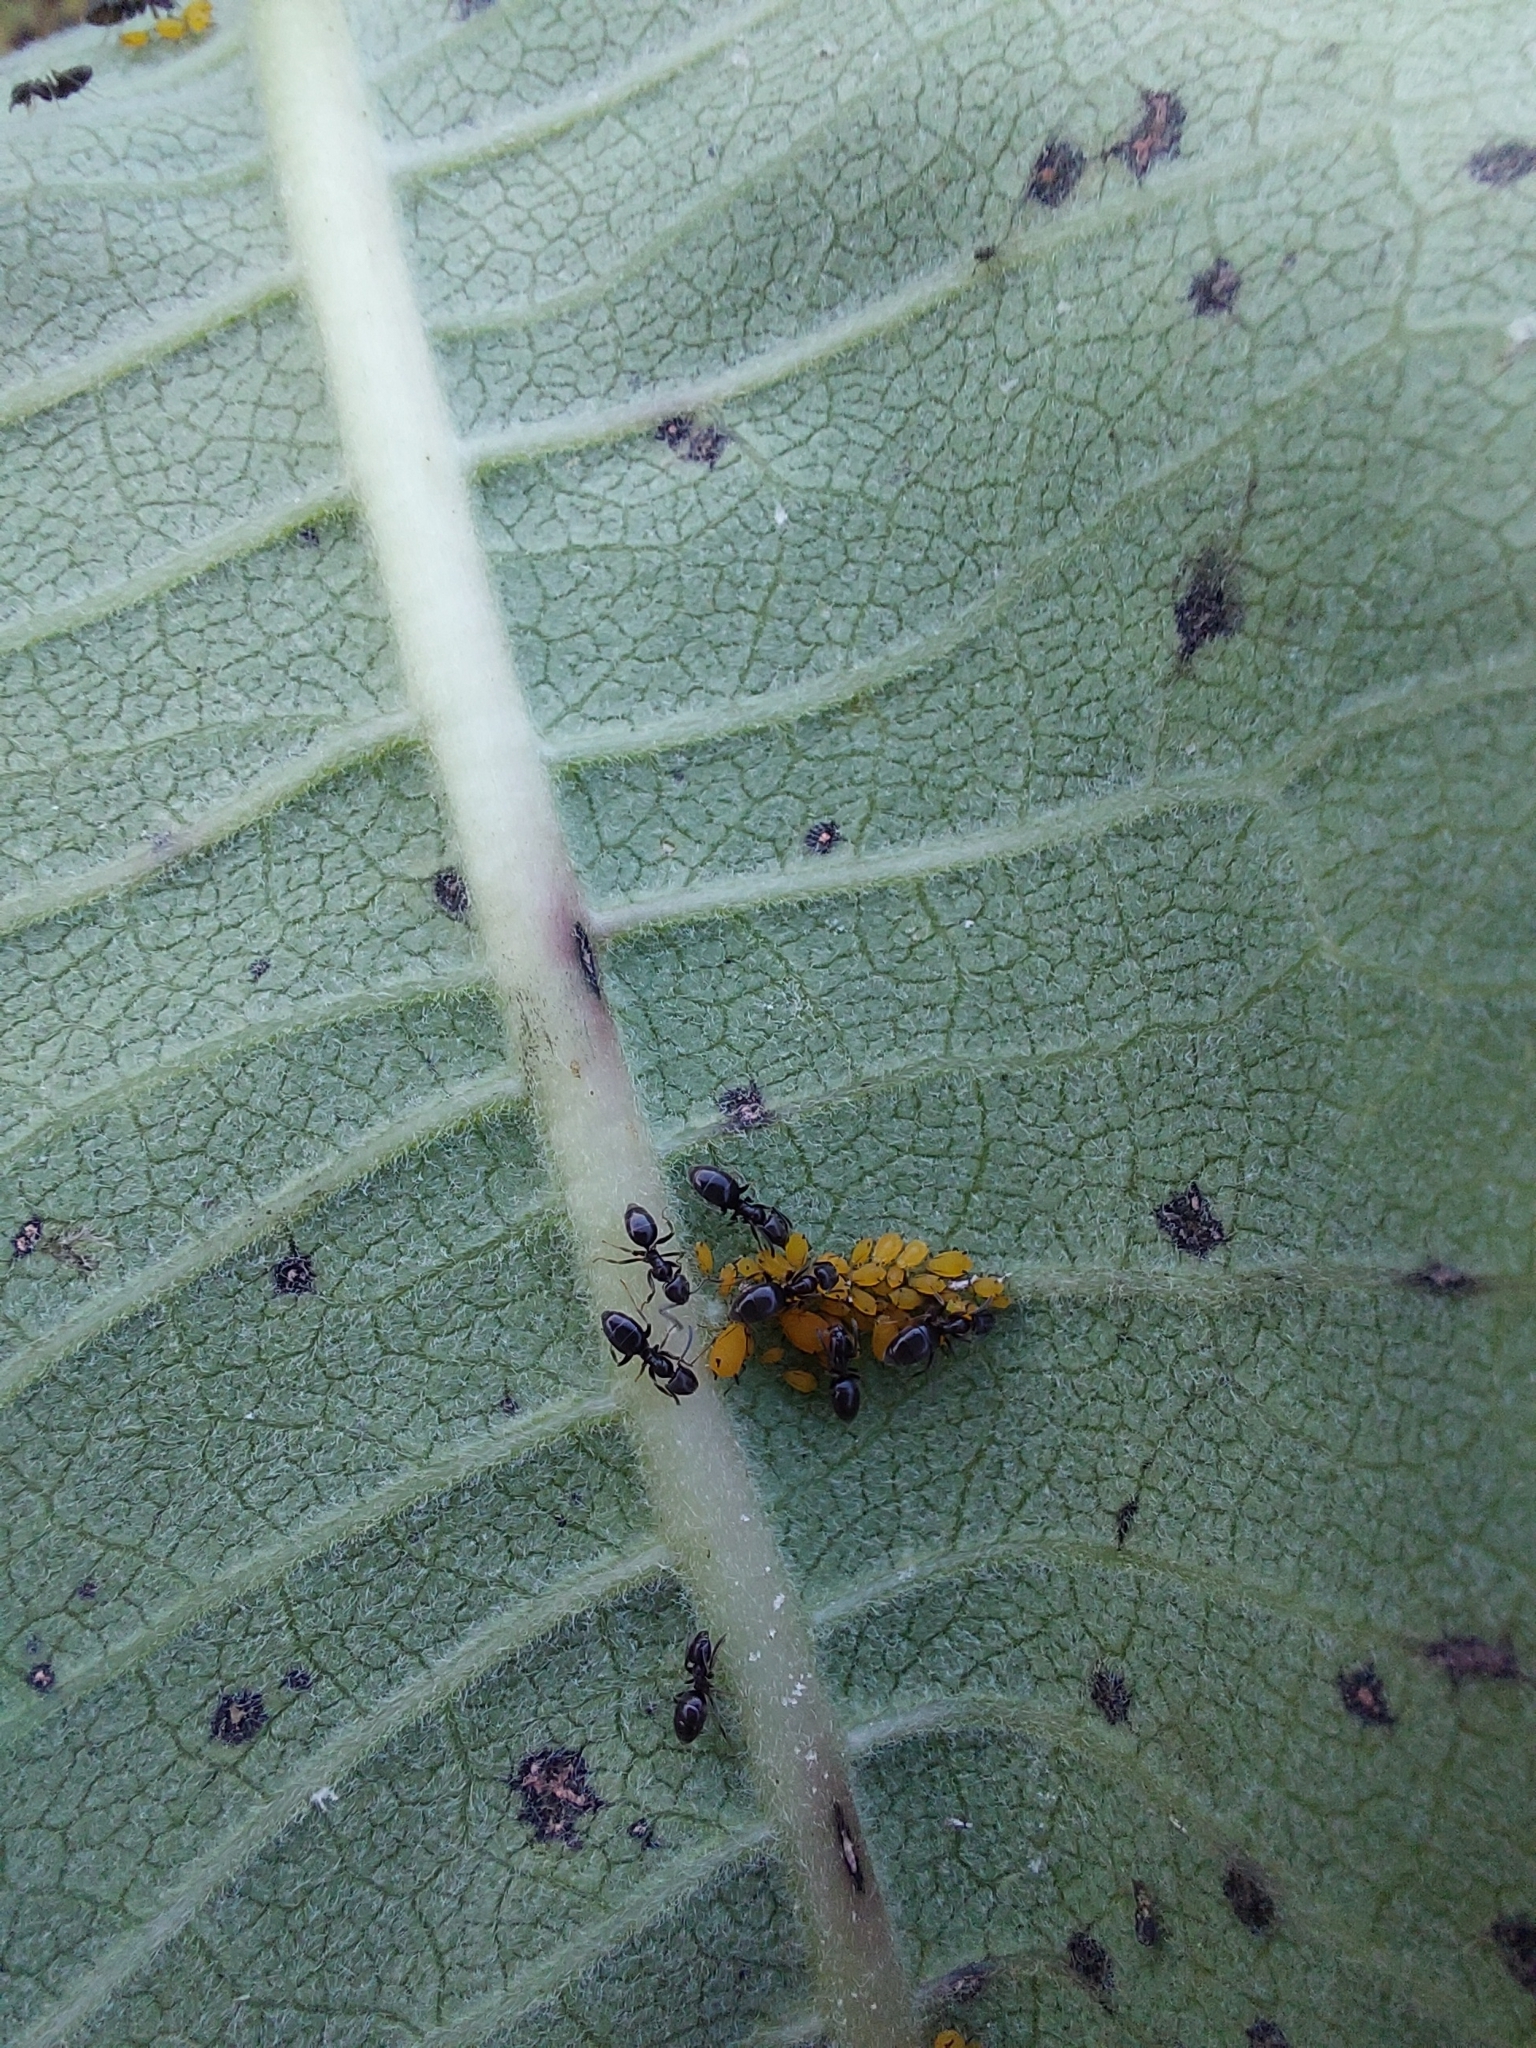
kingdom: Animalia
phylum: Arthropoda
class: Insecta
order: Hemiptera
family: Aphididae
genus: Aphis
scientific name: Aphis nerii
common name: Oleander aphid
